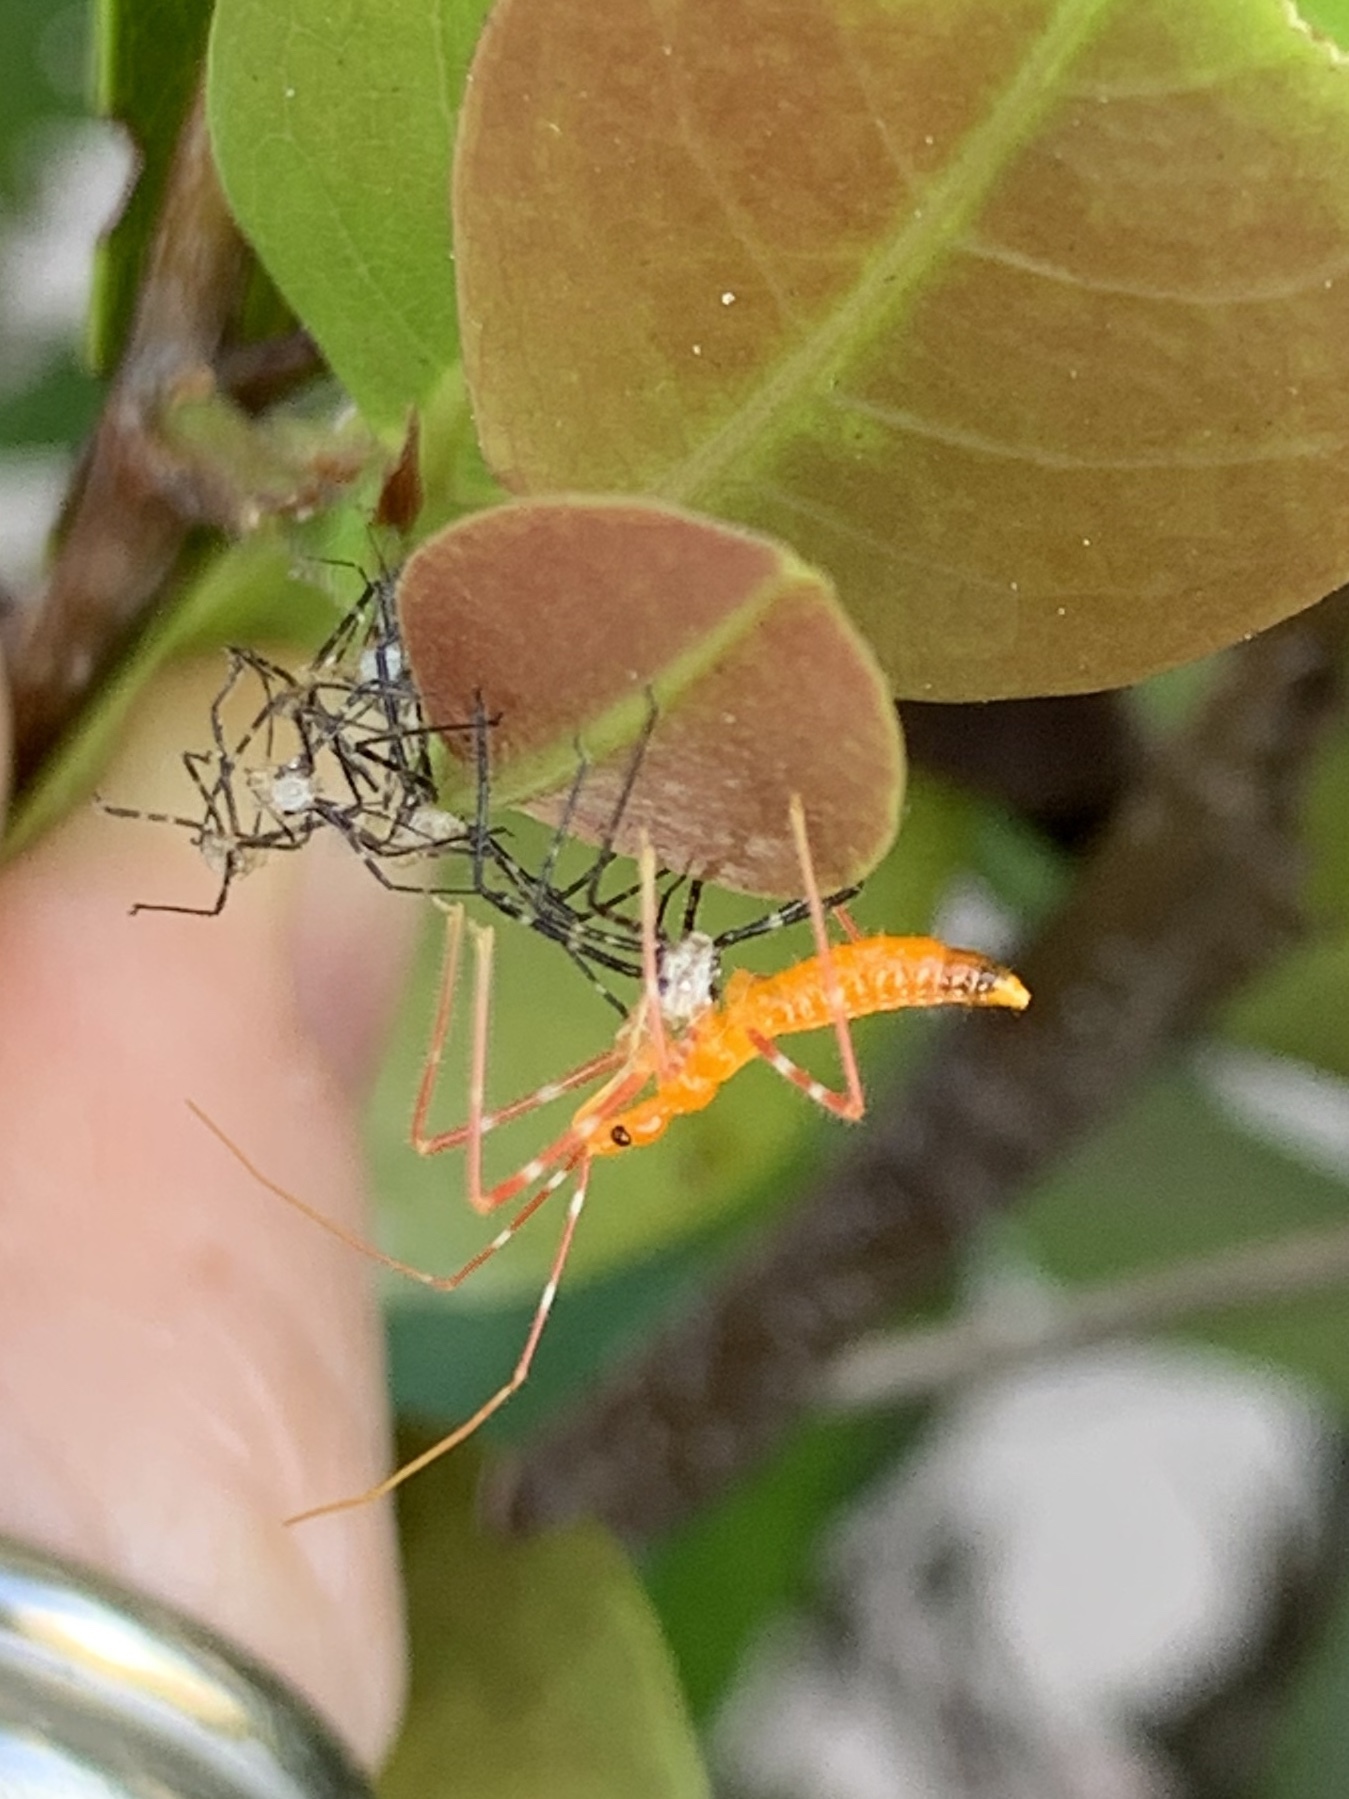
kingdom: Animalia
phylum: Arthropoda
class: Insecta
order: Hemiptera
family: Reduviidae
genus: Zelus
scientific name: Zelus longipes
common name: Milkweed assassin bug
